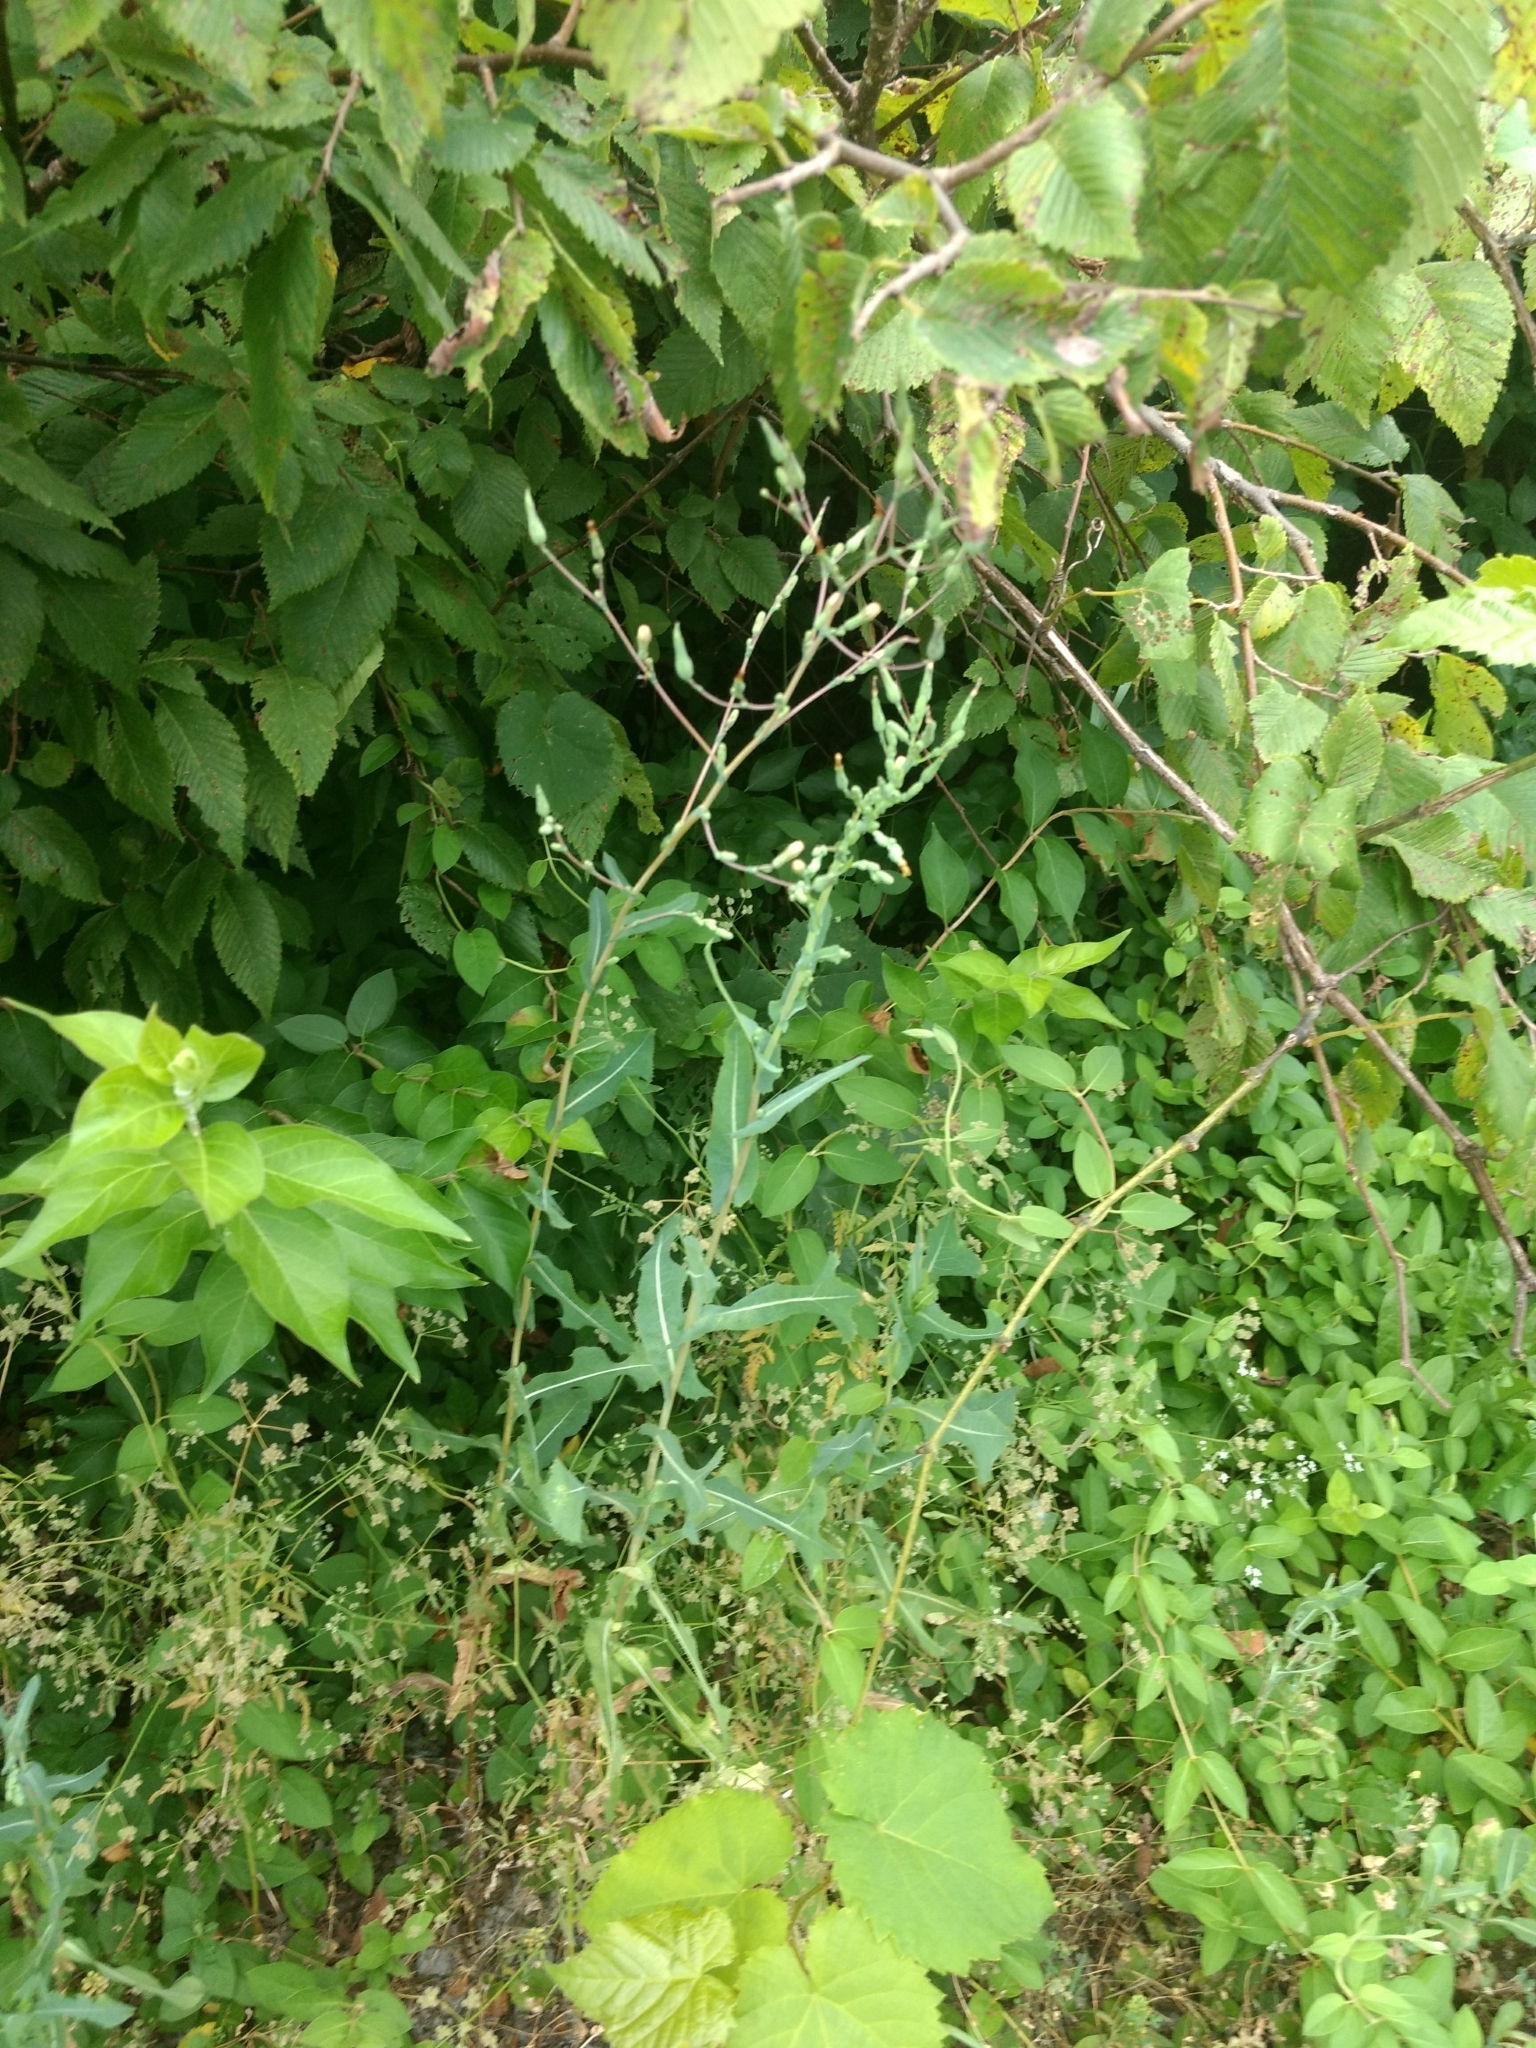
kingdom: Plantae
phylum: Tracheophyta
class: Magnoliopsida
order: Asterales
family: Asteraceae
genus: Lactuca
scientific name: Lactuca serriola
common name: Prickly lettuce
